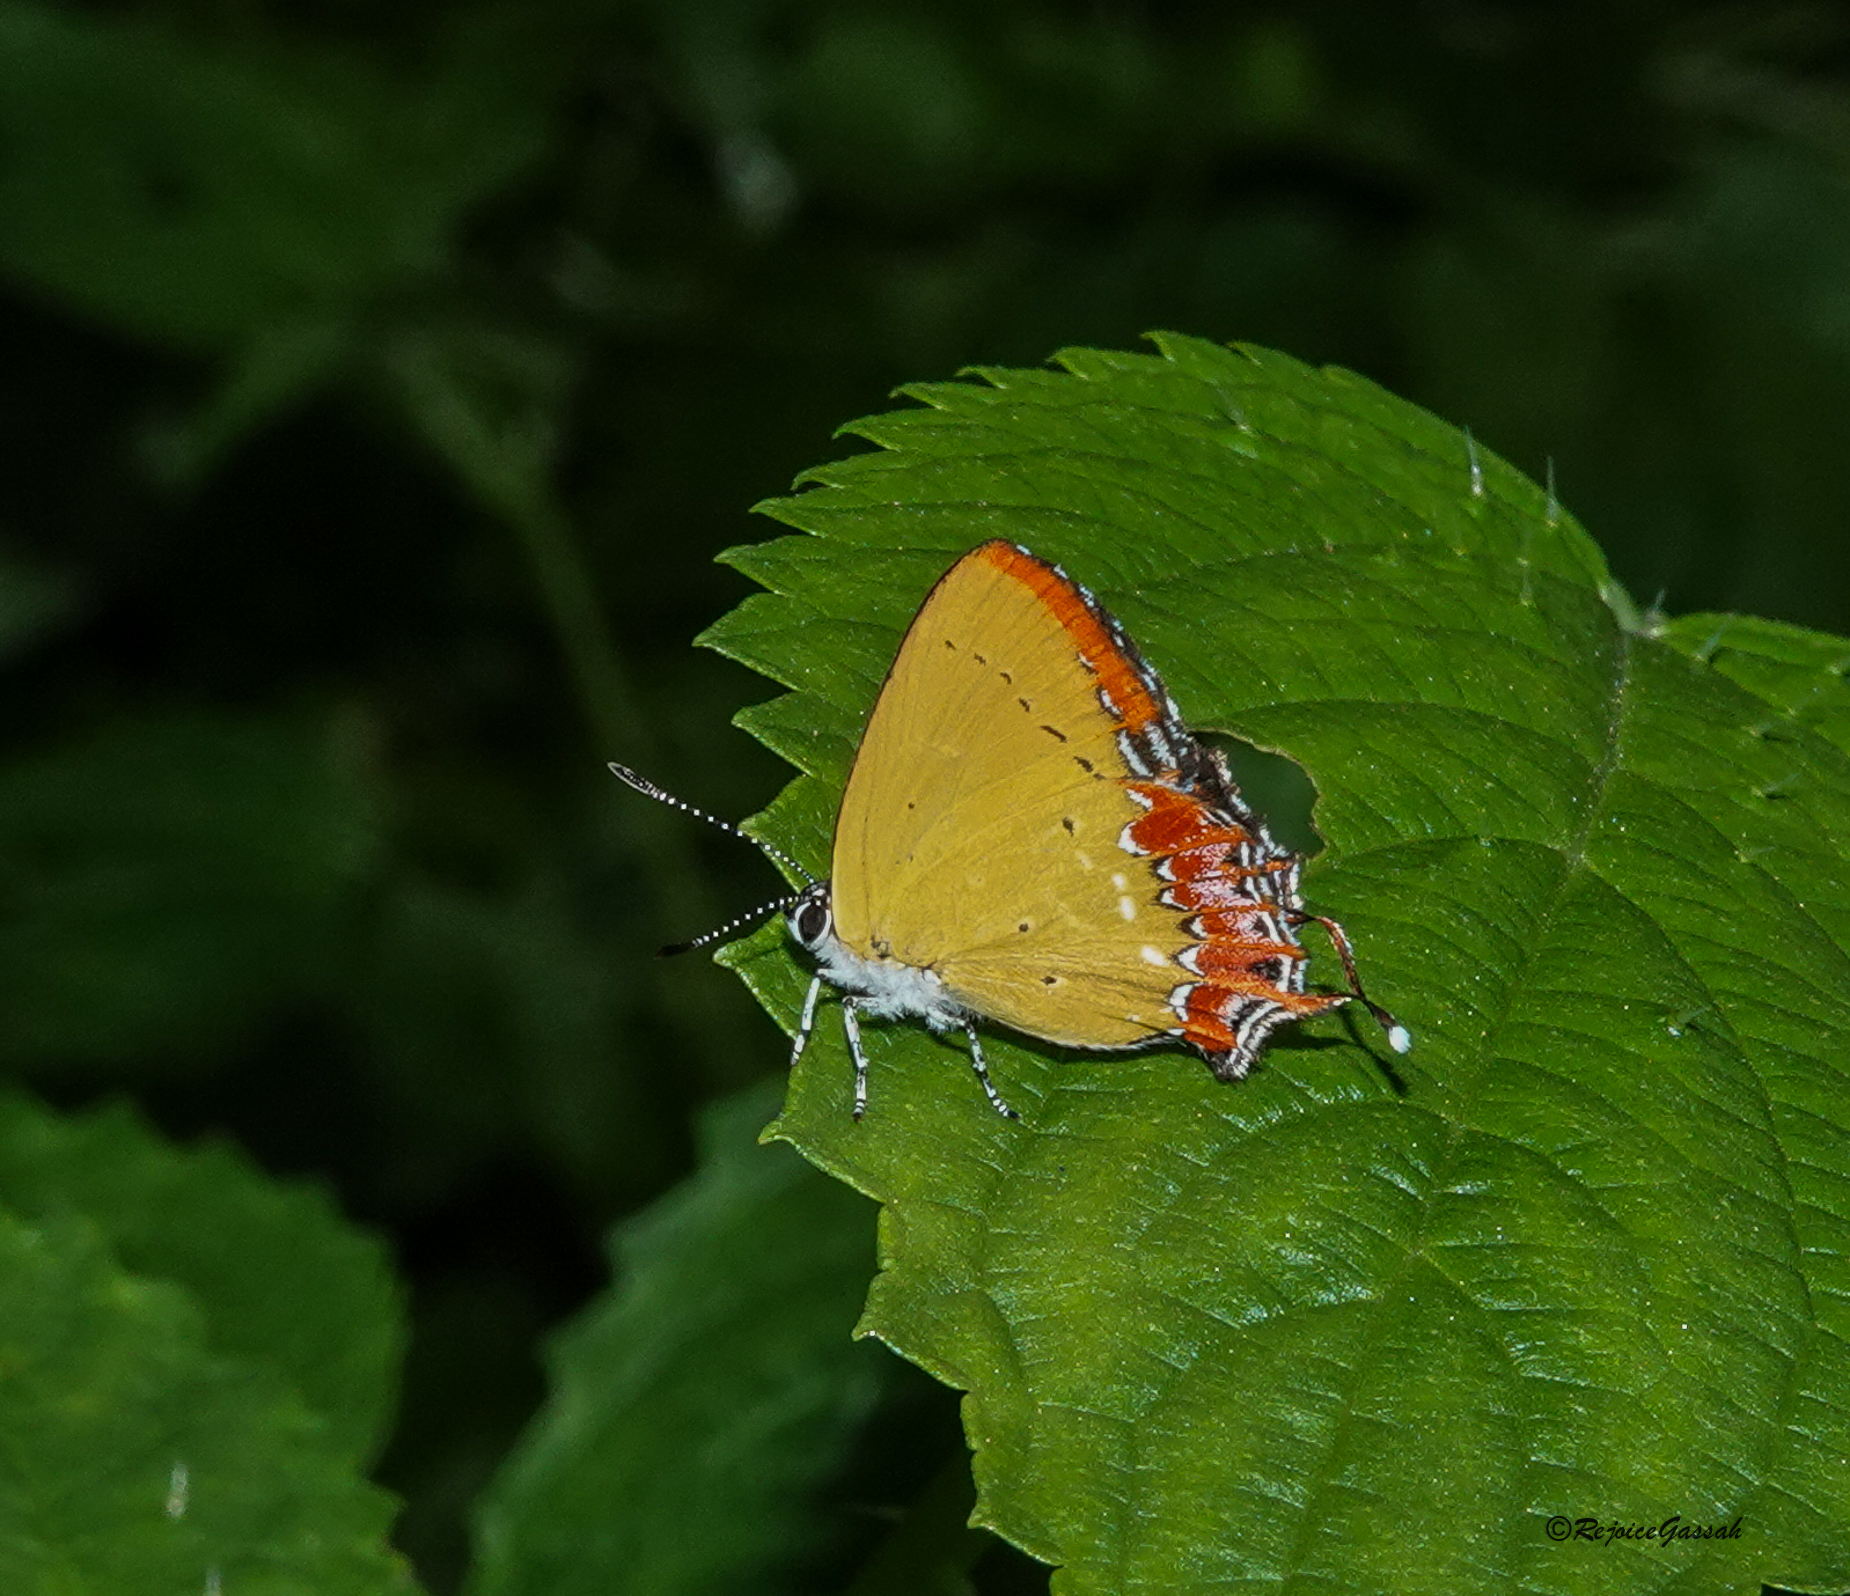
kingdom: Animalia
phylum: Arthropoda
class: Insecta
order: Lepidoptera
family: Lycaenidae
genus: Heliophorus
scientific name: Heliophorus epicles
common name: Purple sapphire
